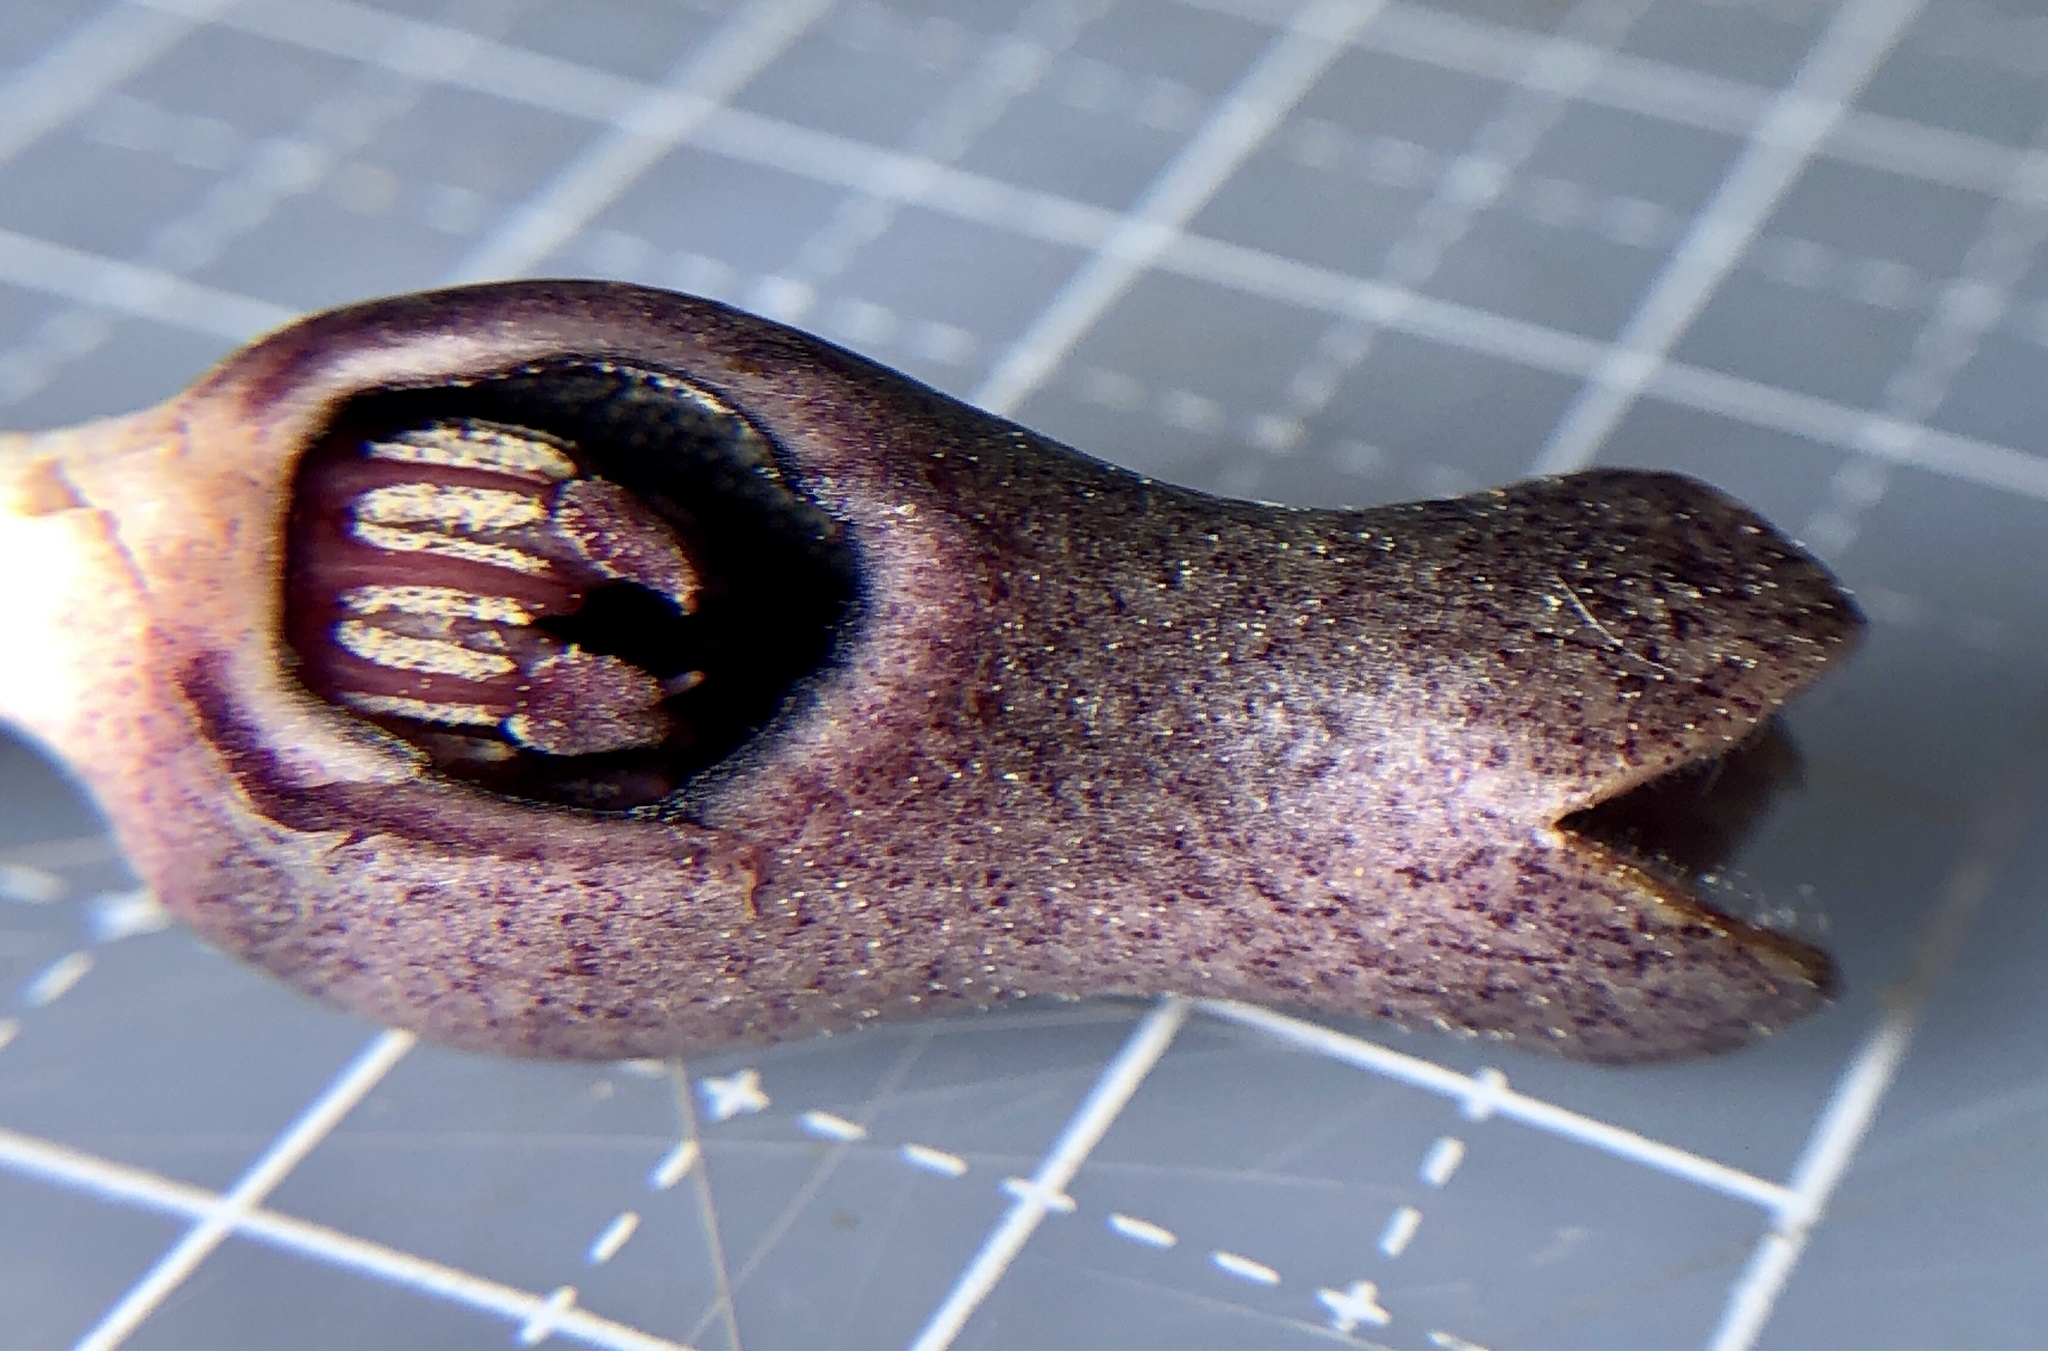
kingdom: Plantae
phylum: Tracheophyta
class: Magnoliopsida
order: Piperales
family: Aristolochiaceae
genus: Hexastylis
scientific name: Hexastylis arifolia
